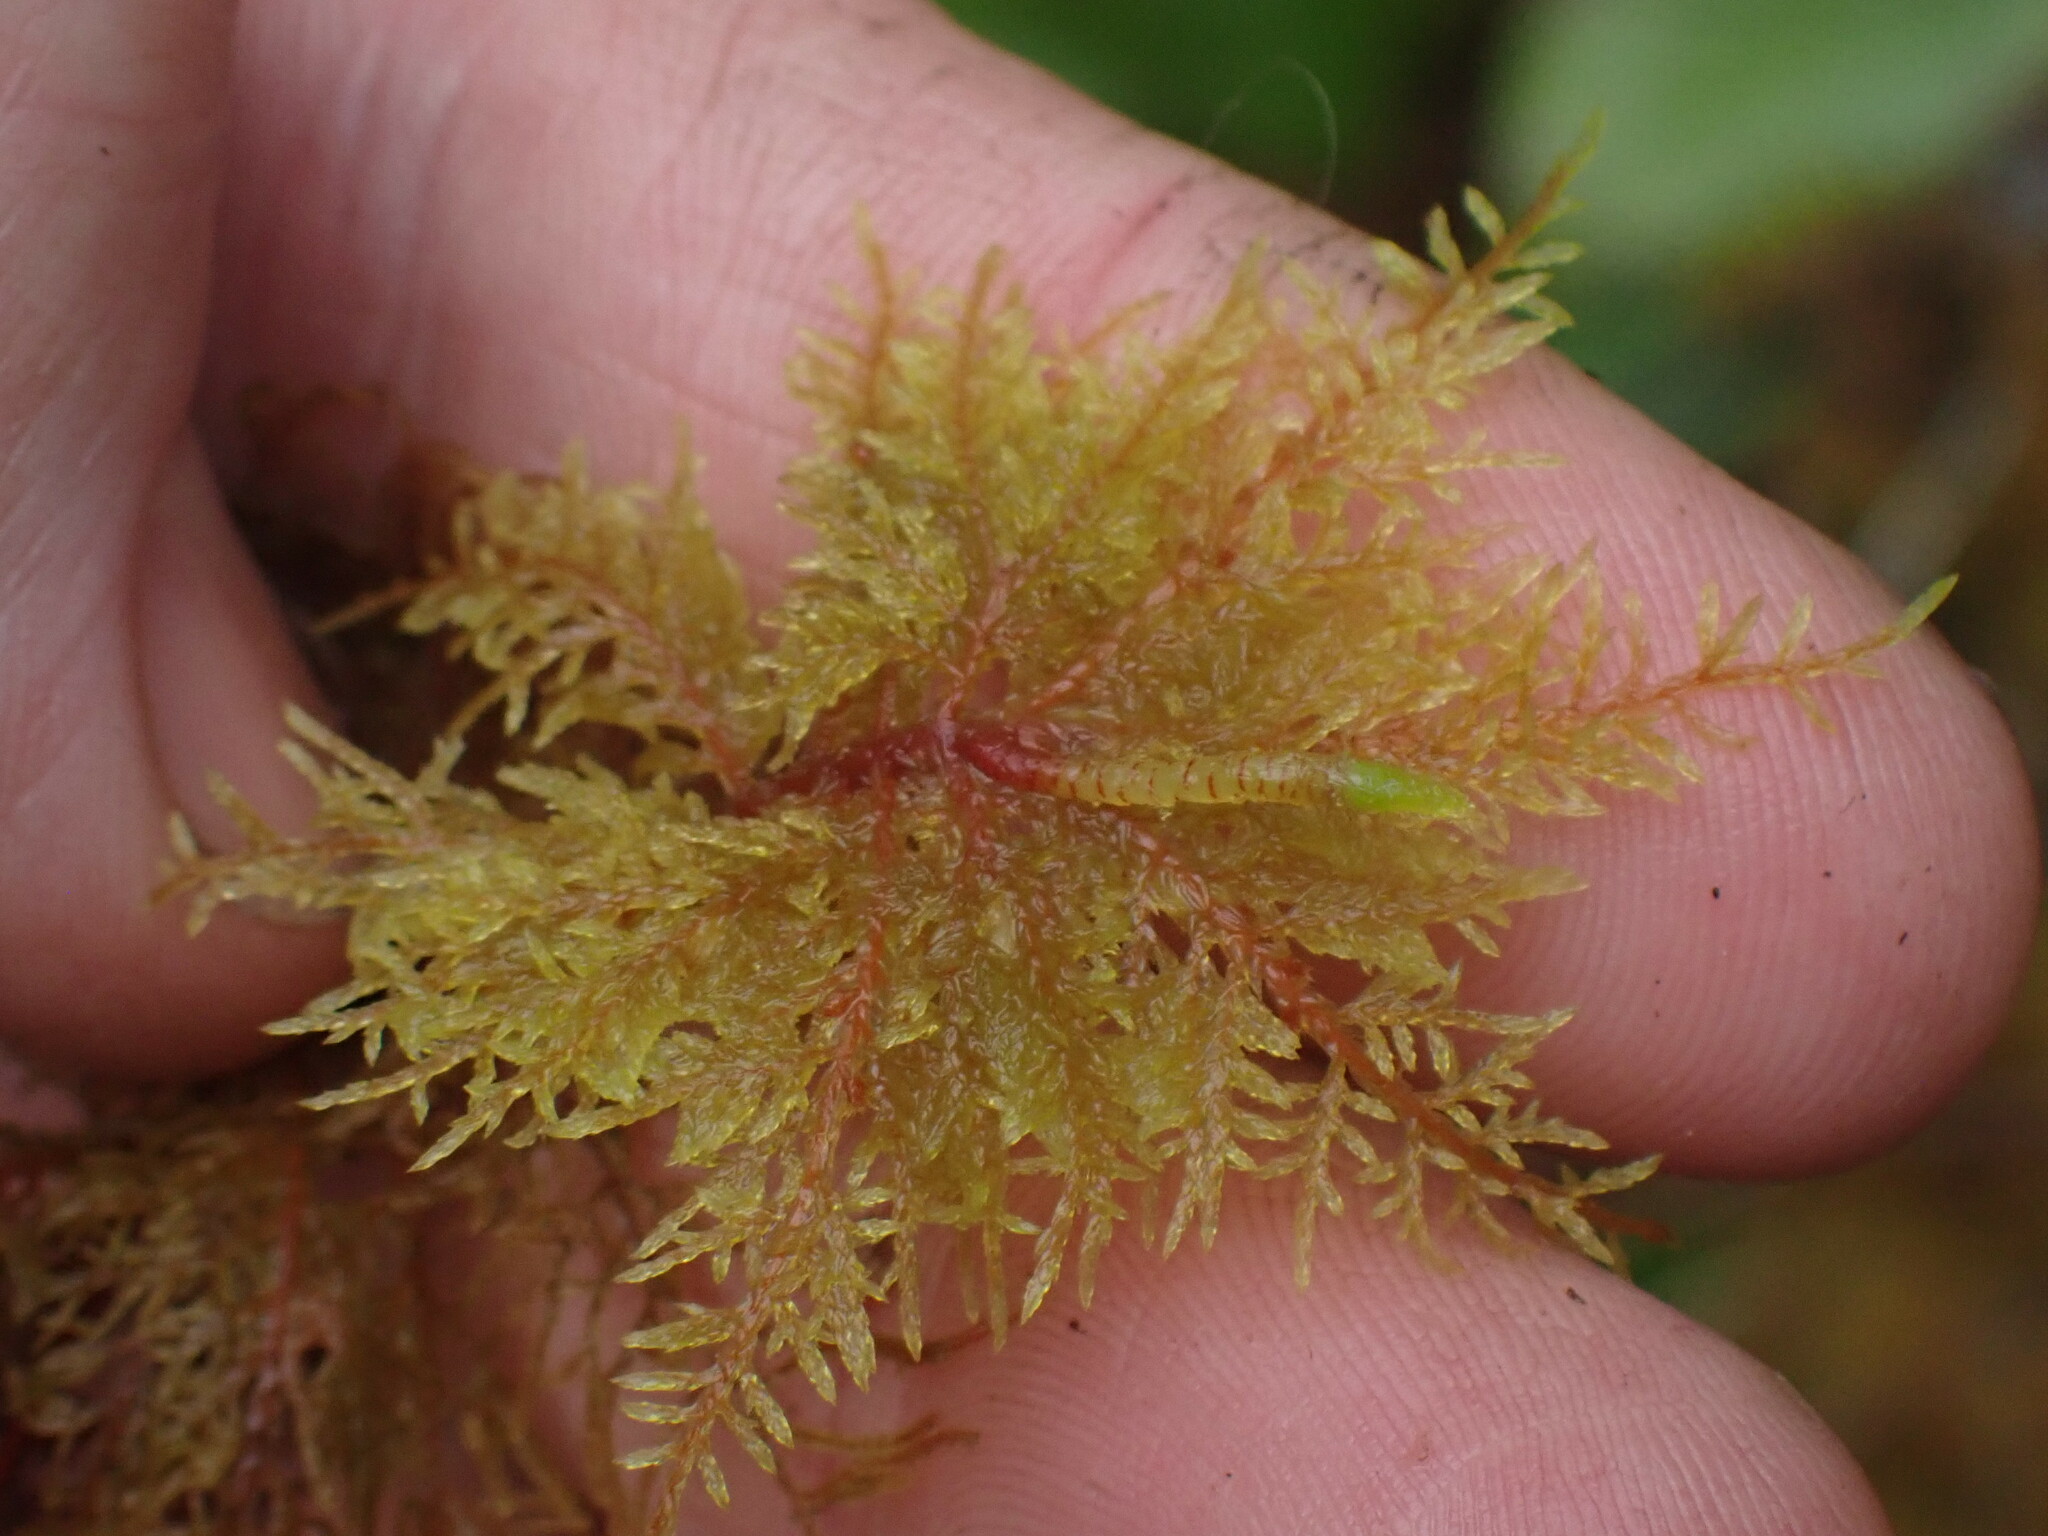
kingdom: Plantae
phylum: Bryophyta
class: Bryopsida
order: Hypnales
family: Hylocomiaceae
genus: Hylocomium
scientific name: Hylocomium splendens
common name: Stairstep moss
